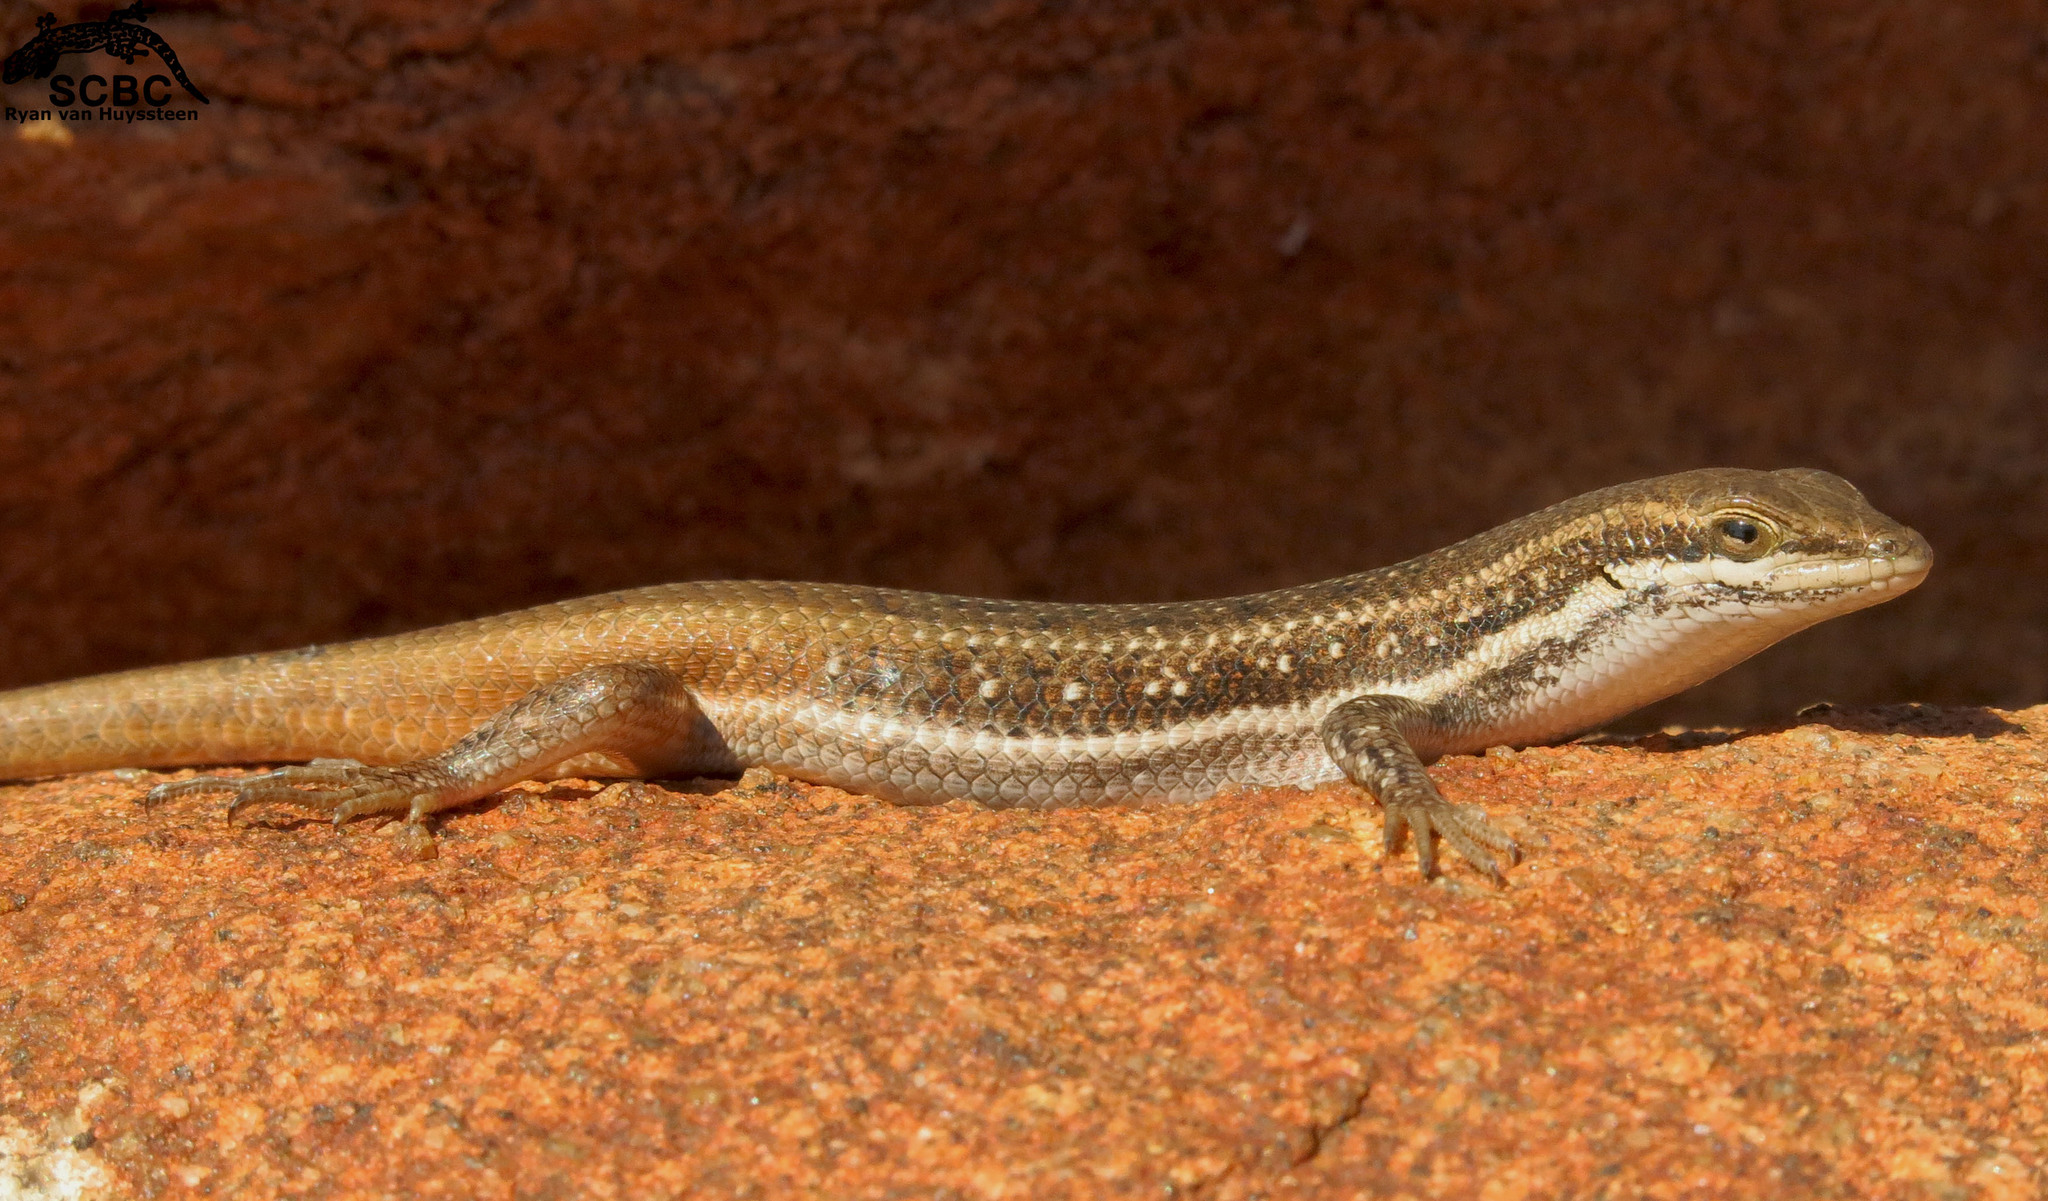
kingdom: Animalia
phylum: Chordata
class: Squamata
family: Scincidae
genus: Trachylepis
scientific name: Trachylepis varia
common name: Eastern variable skink
